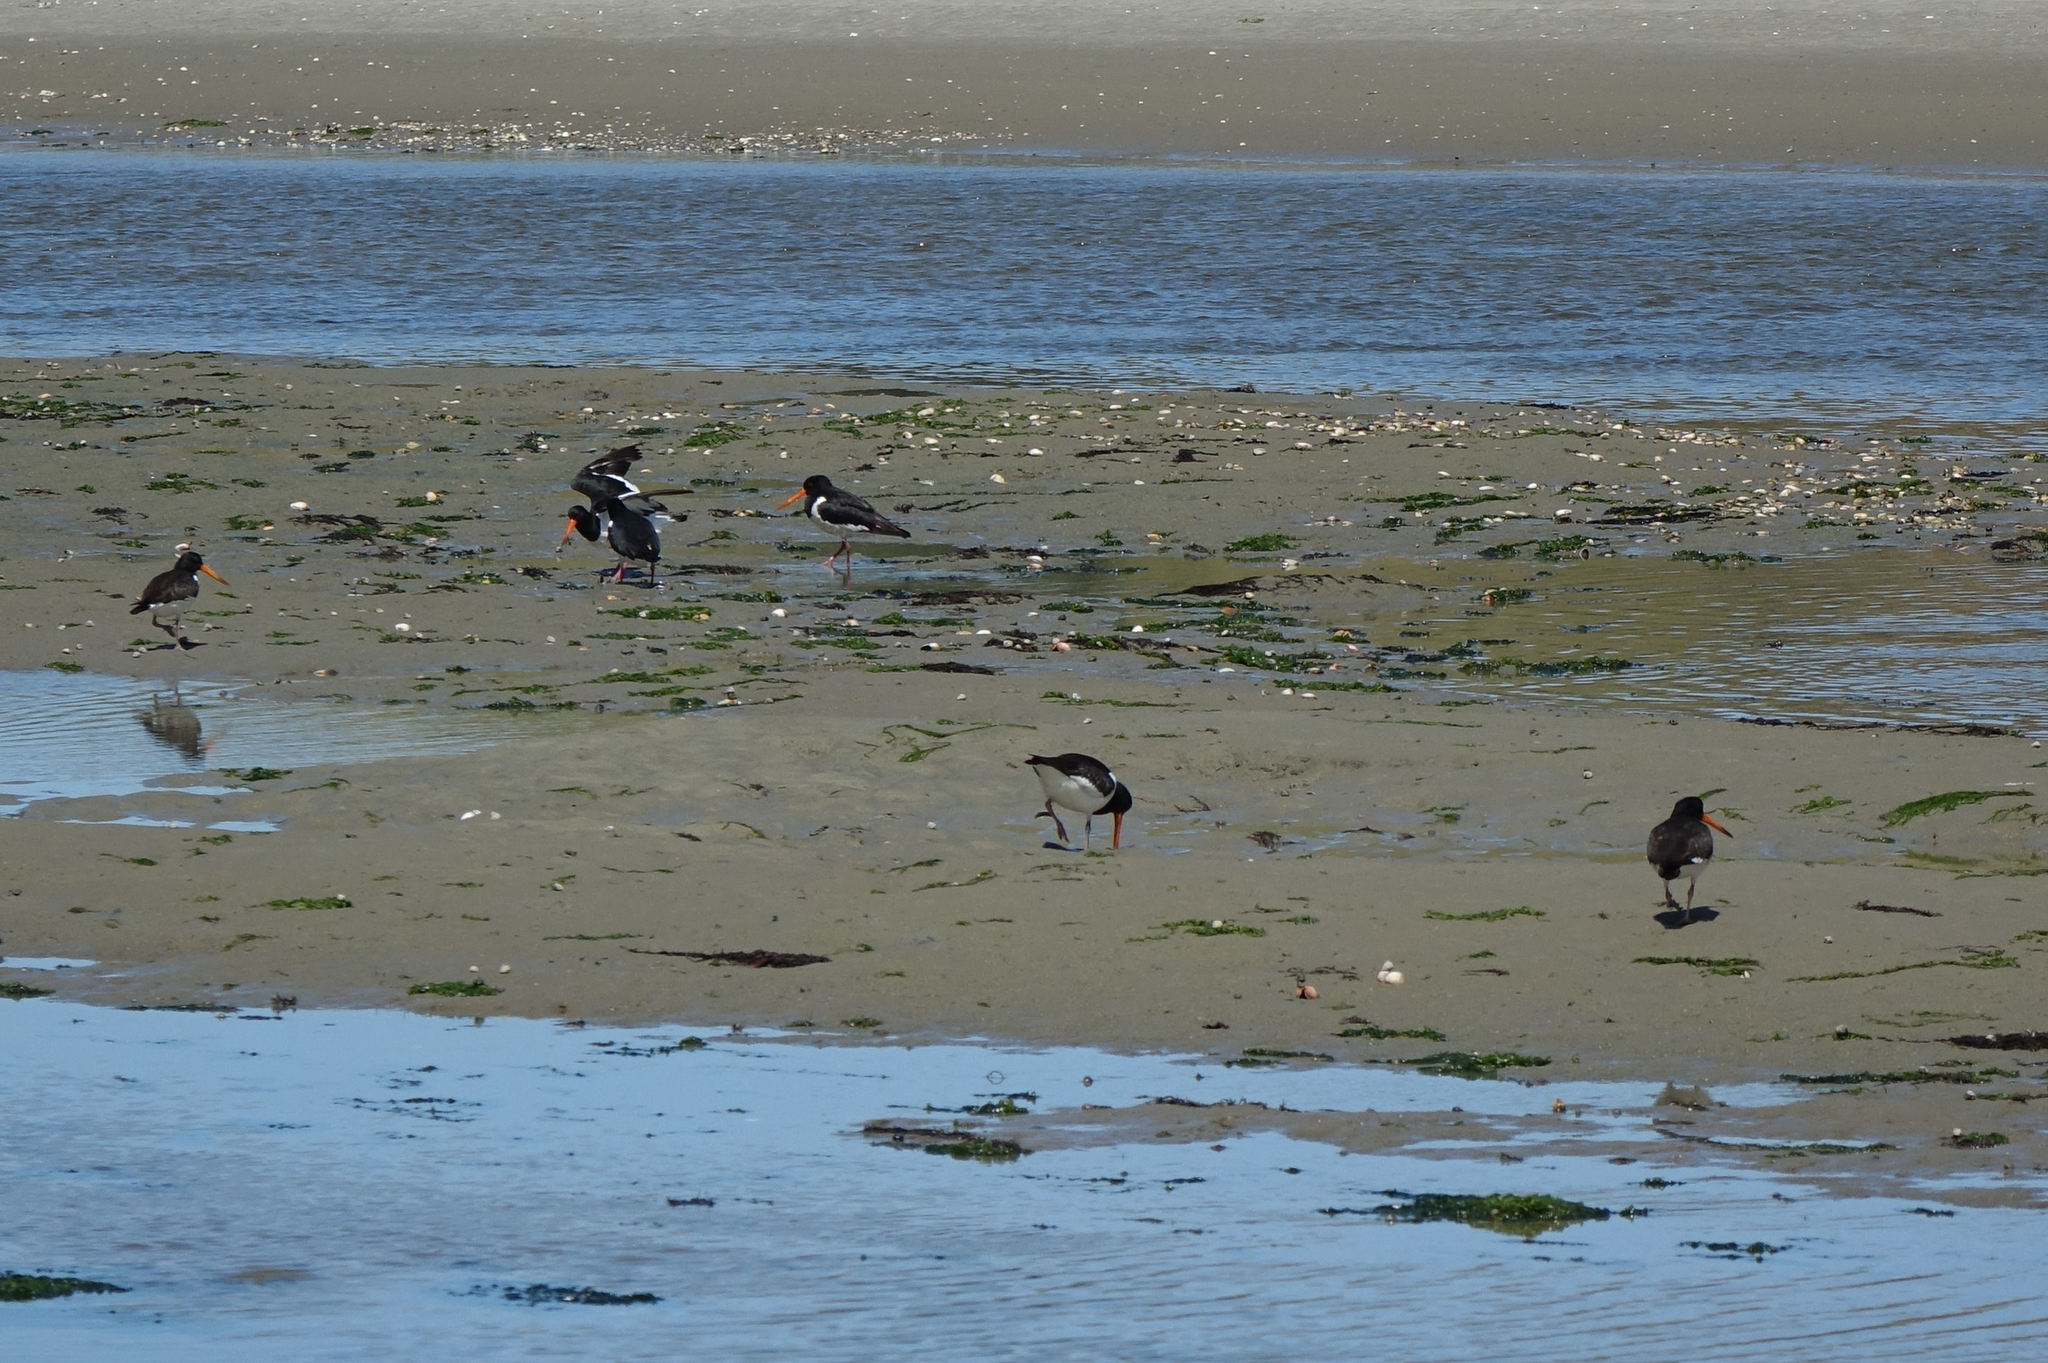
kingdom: Animalia
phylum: Chordata
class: Aves
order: Charadriiformes
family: Haematopodidae
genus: Haematopus
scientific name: Haematopus finschi
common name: South island oystercatcher
